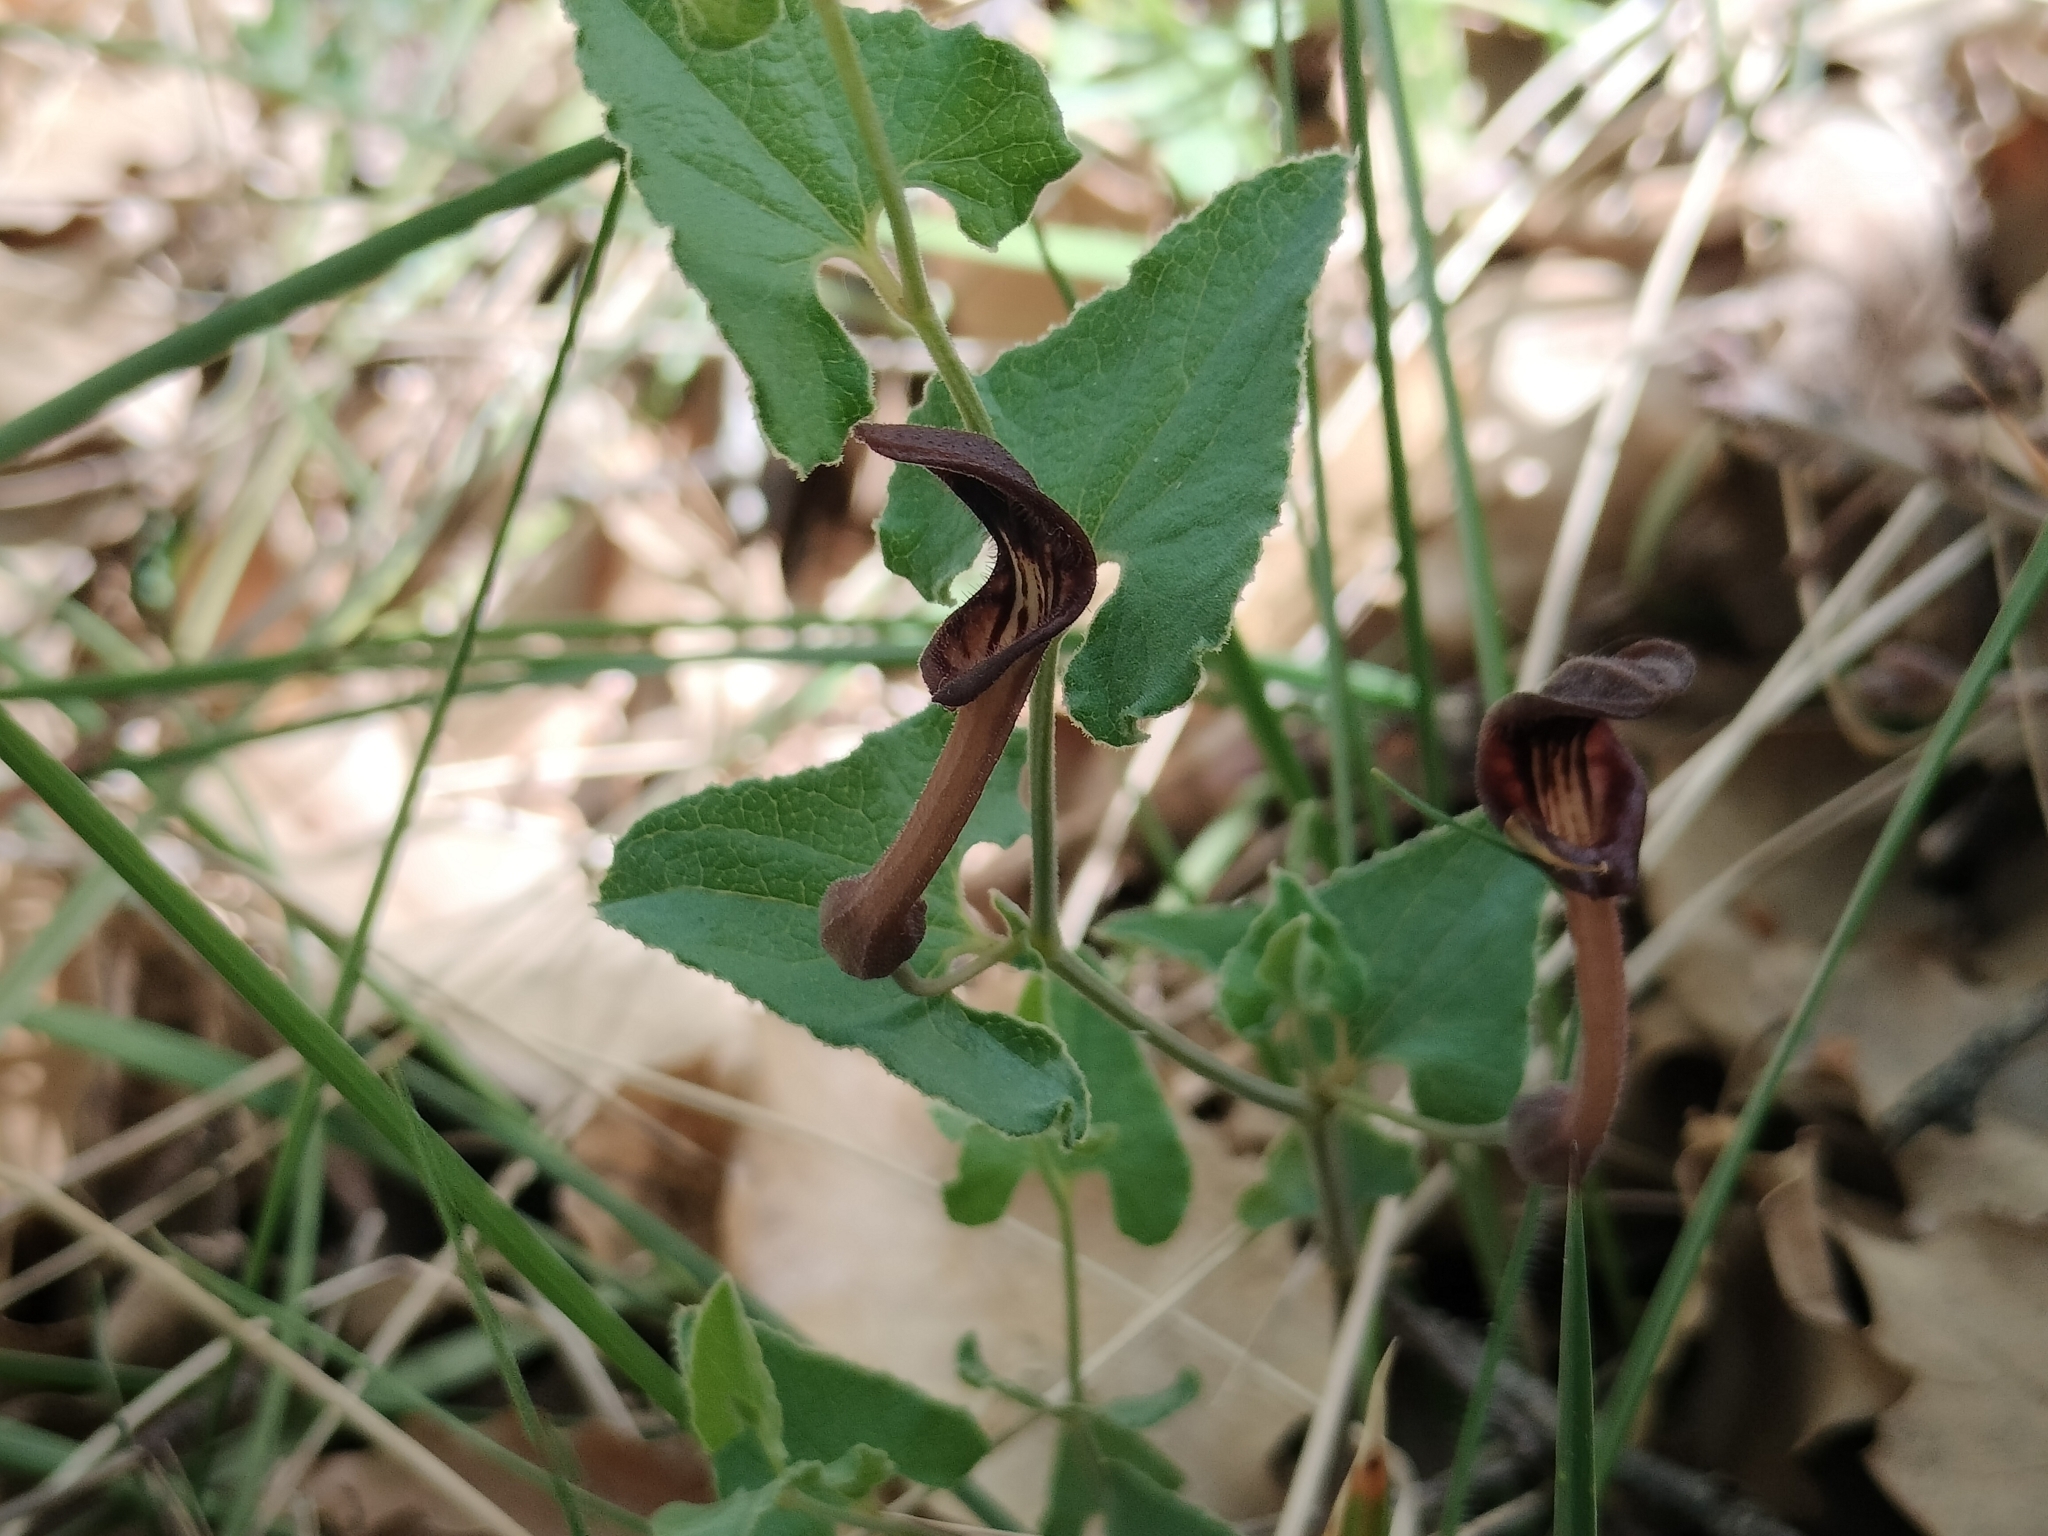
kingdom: Plantae
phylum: Tracheophyta
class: Magnoliopsida
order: Piperales
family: Aristolochiaceae
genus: Aristolochia
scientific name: Aristolochia pistolochia
